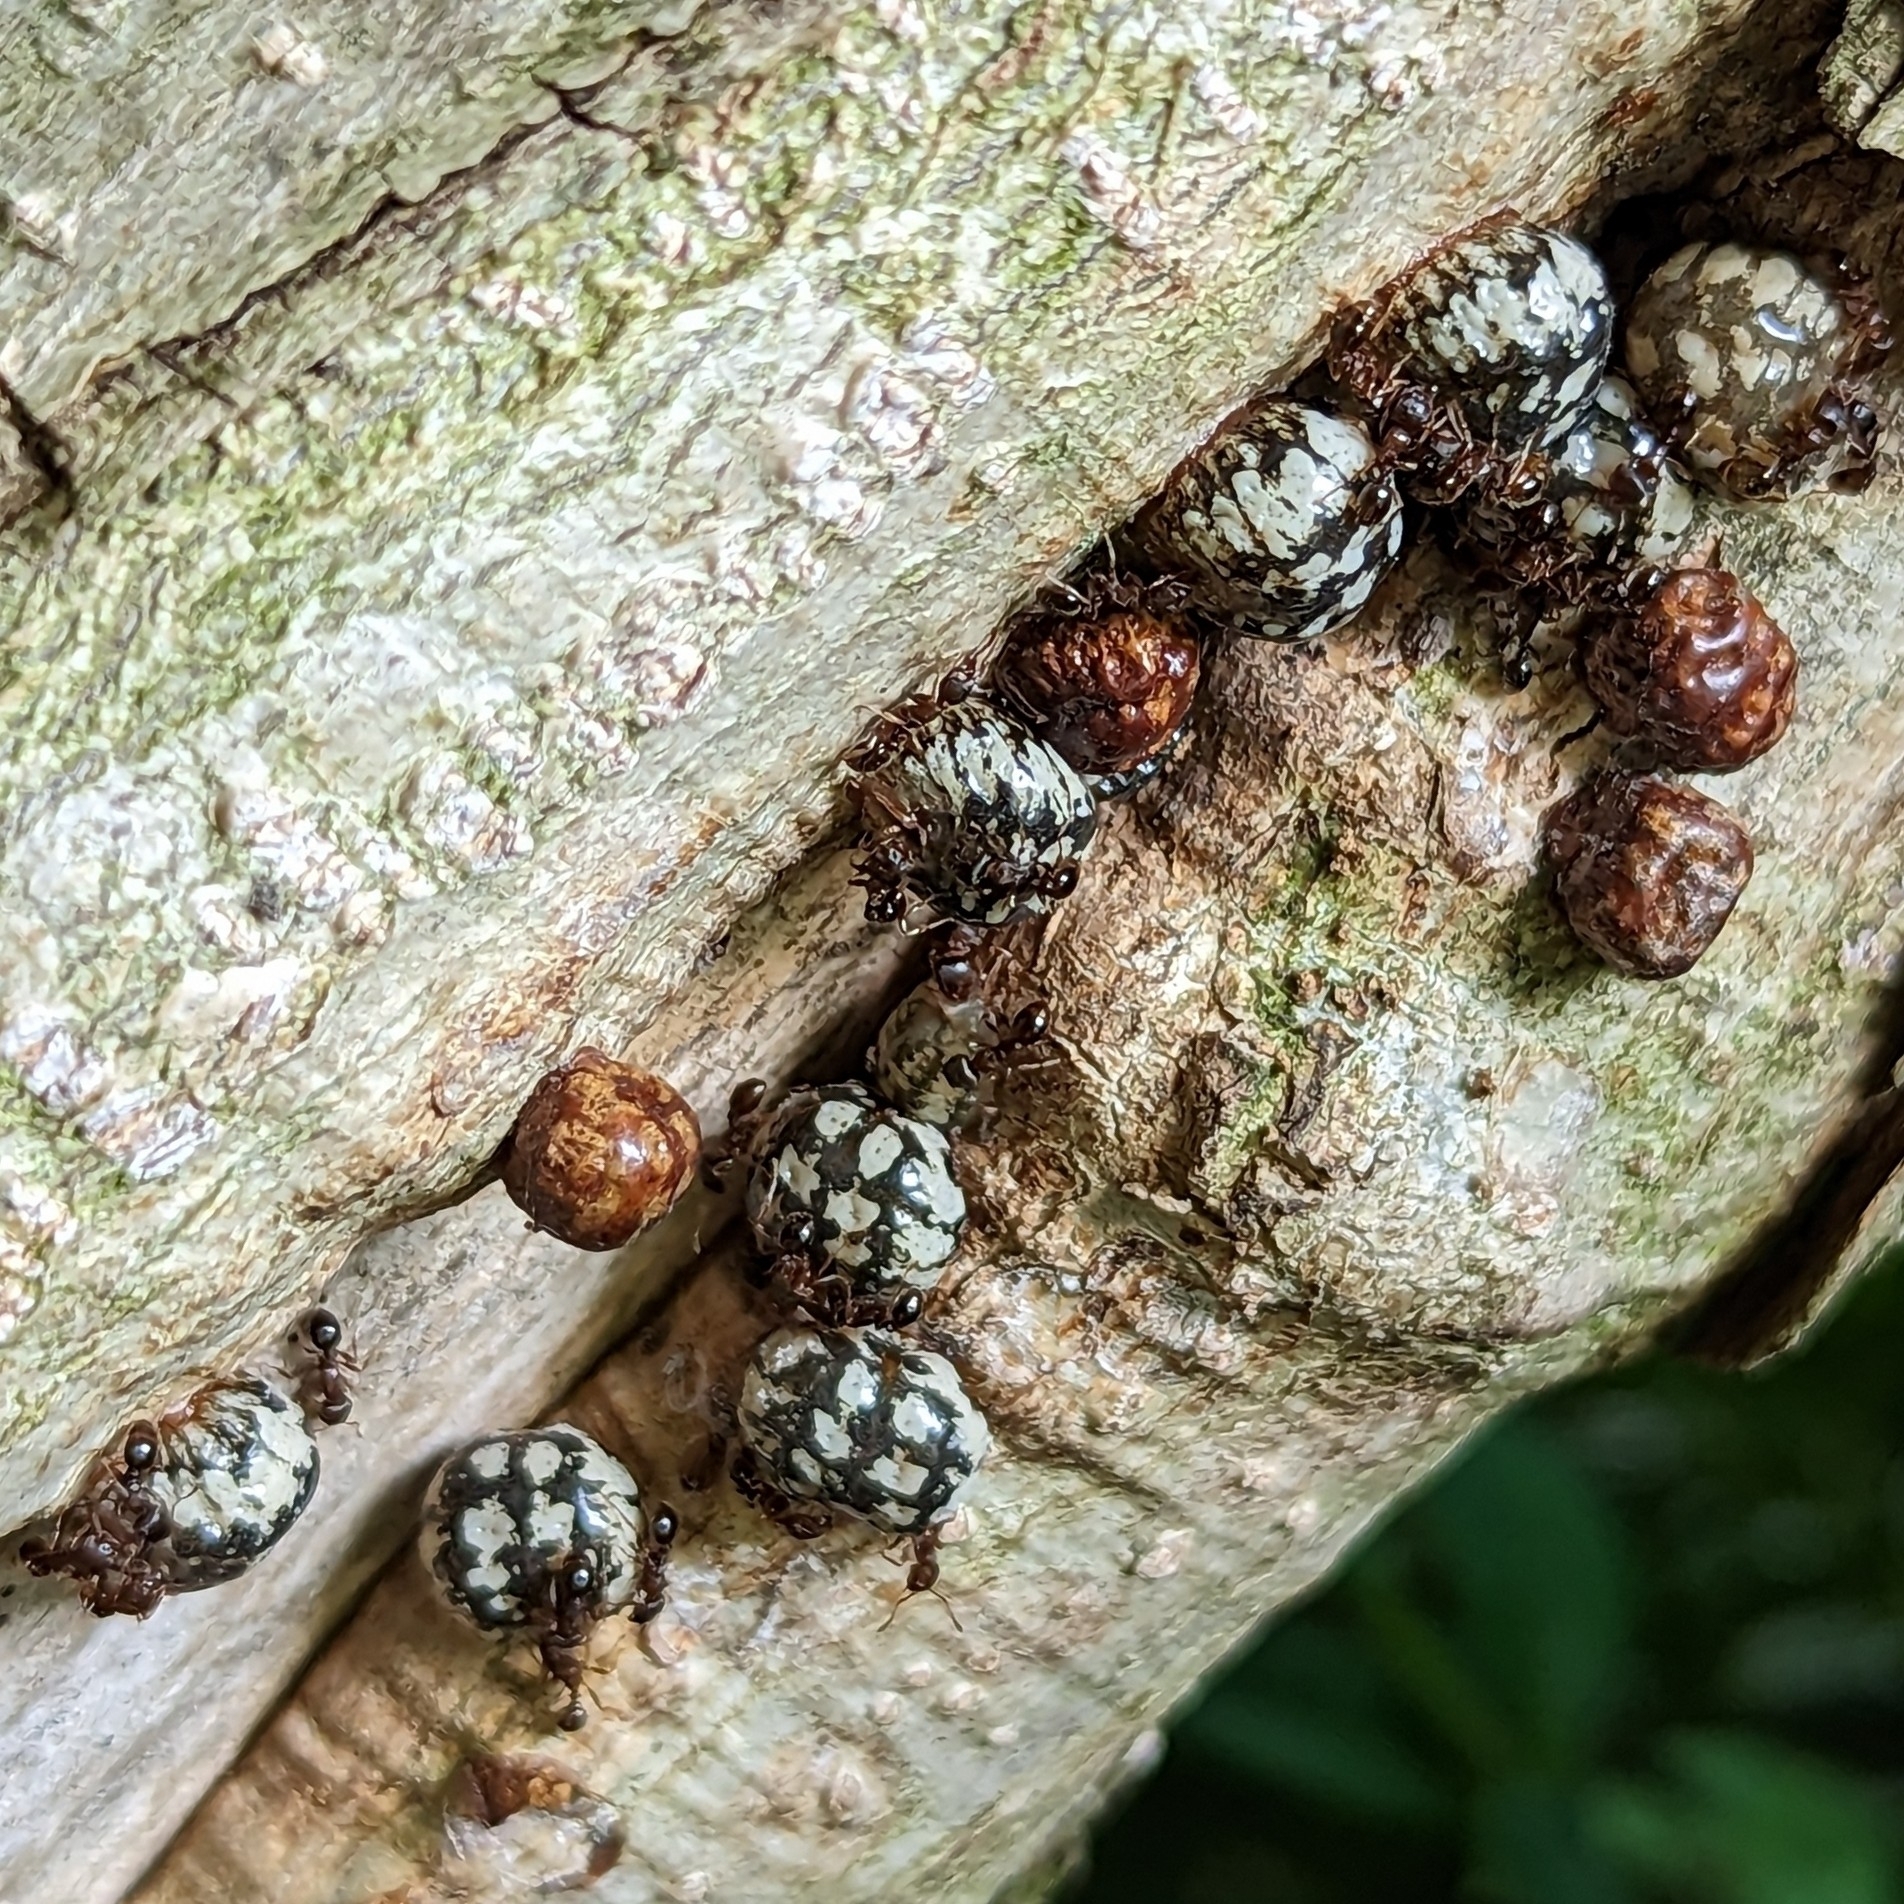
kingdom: Animalia
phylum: Arthropoda
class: Insecta
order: Hemiptera
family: Coccidae
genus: Eulecanium
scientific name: Eulecanium cerasorum
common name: Calico scale
